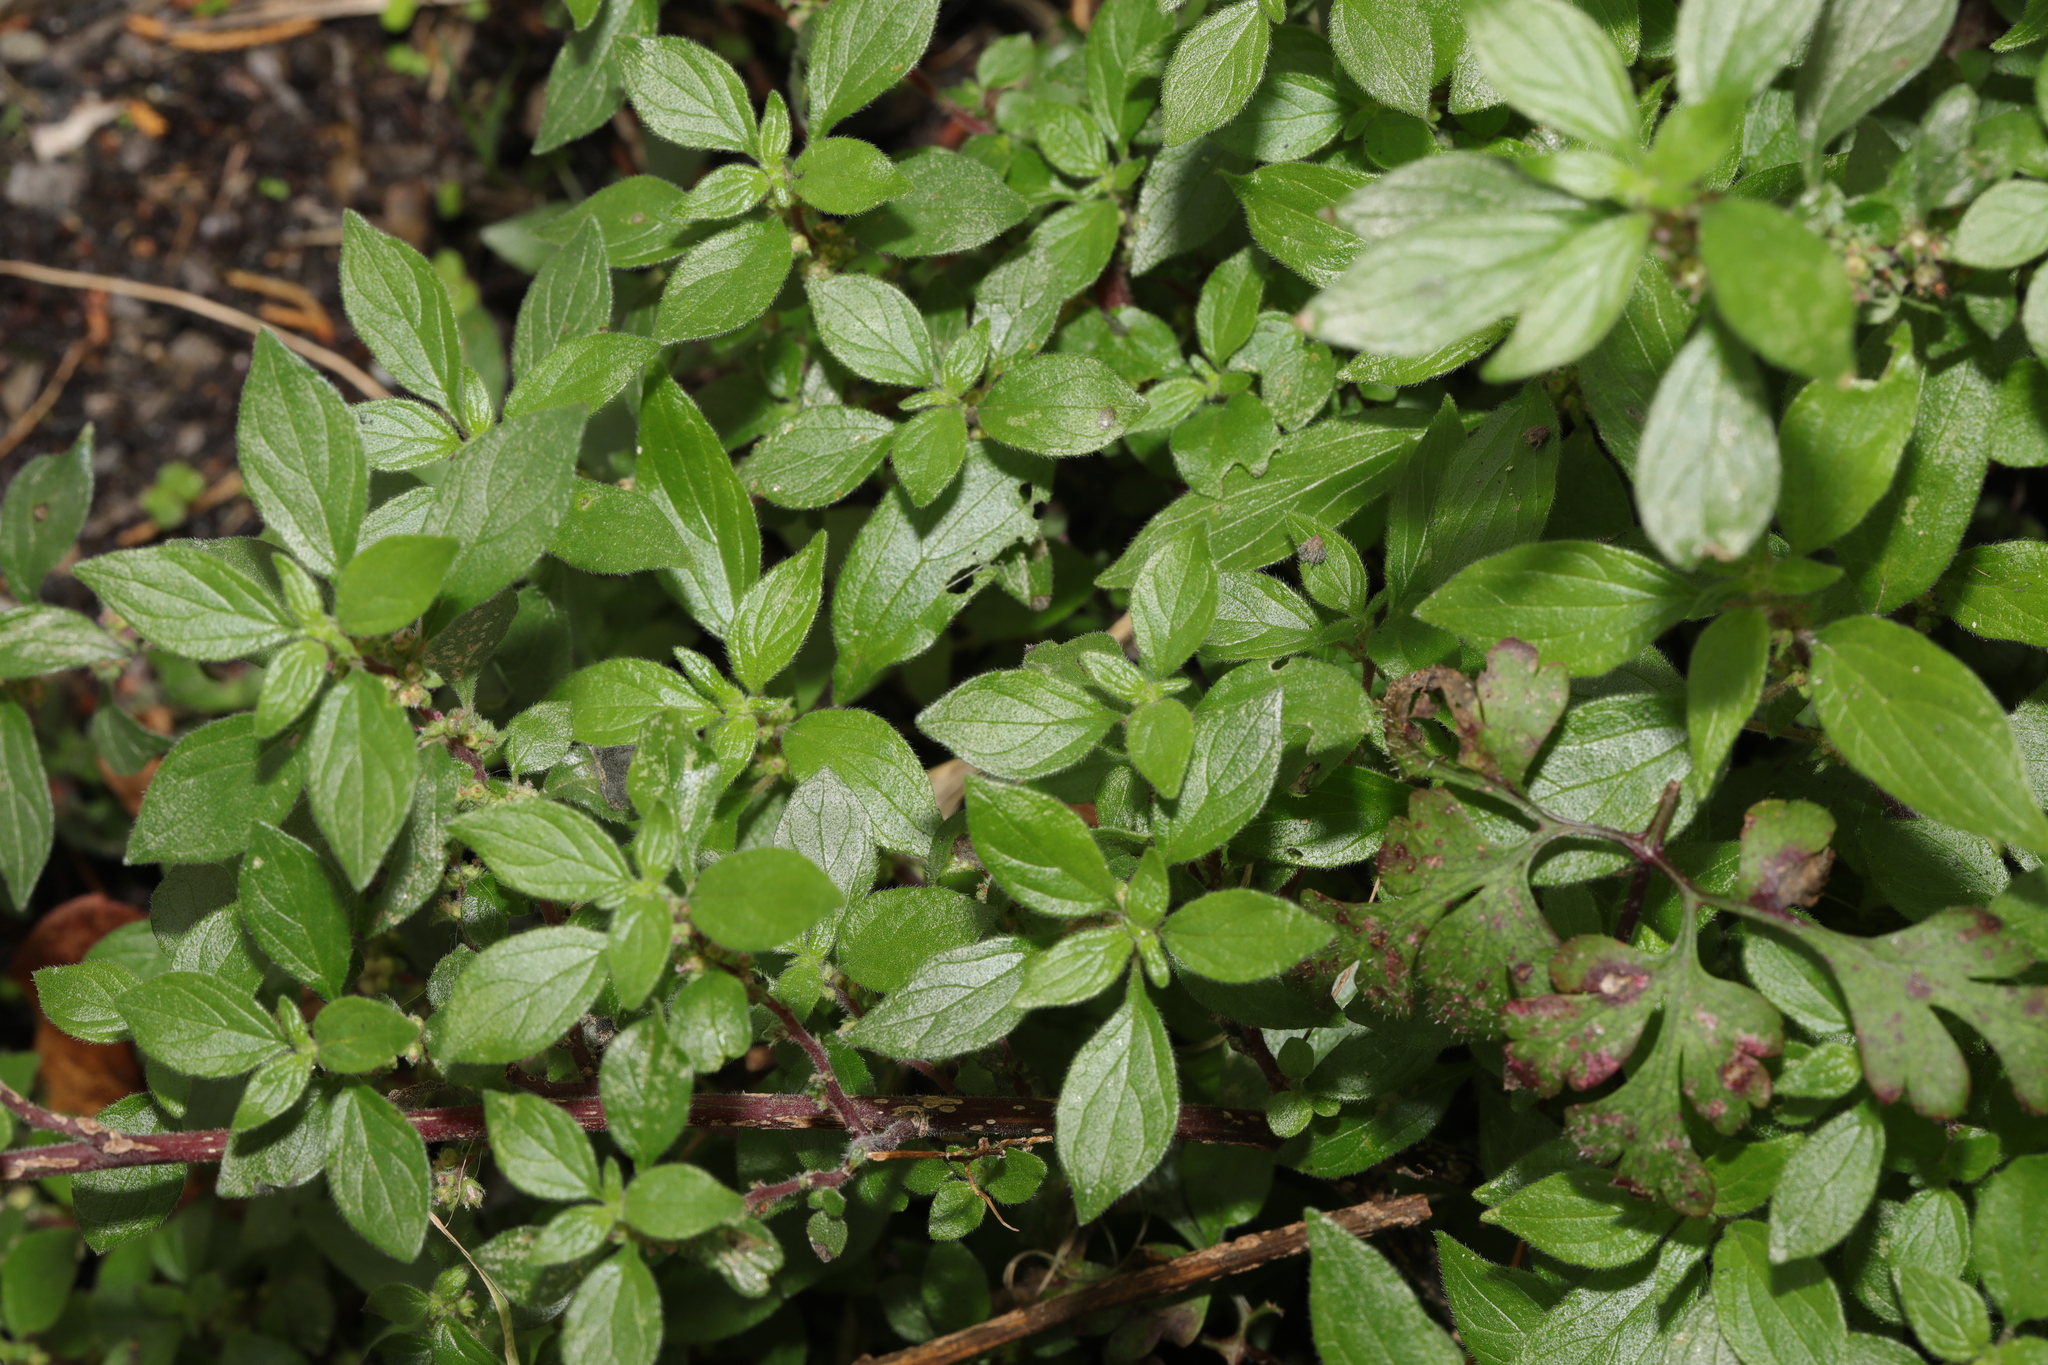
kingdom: Plantae
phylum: Tracheophyta
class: Magnoliopsida
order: Rosales
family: Urticaceae
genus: Parietaria
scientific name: Parietaria judaica
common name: Pellitory-of-the-wall
